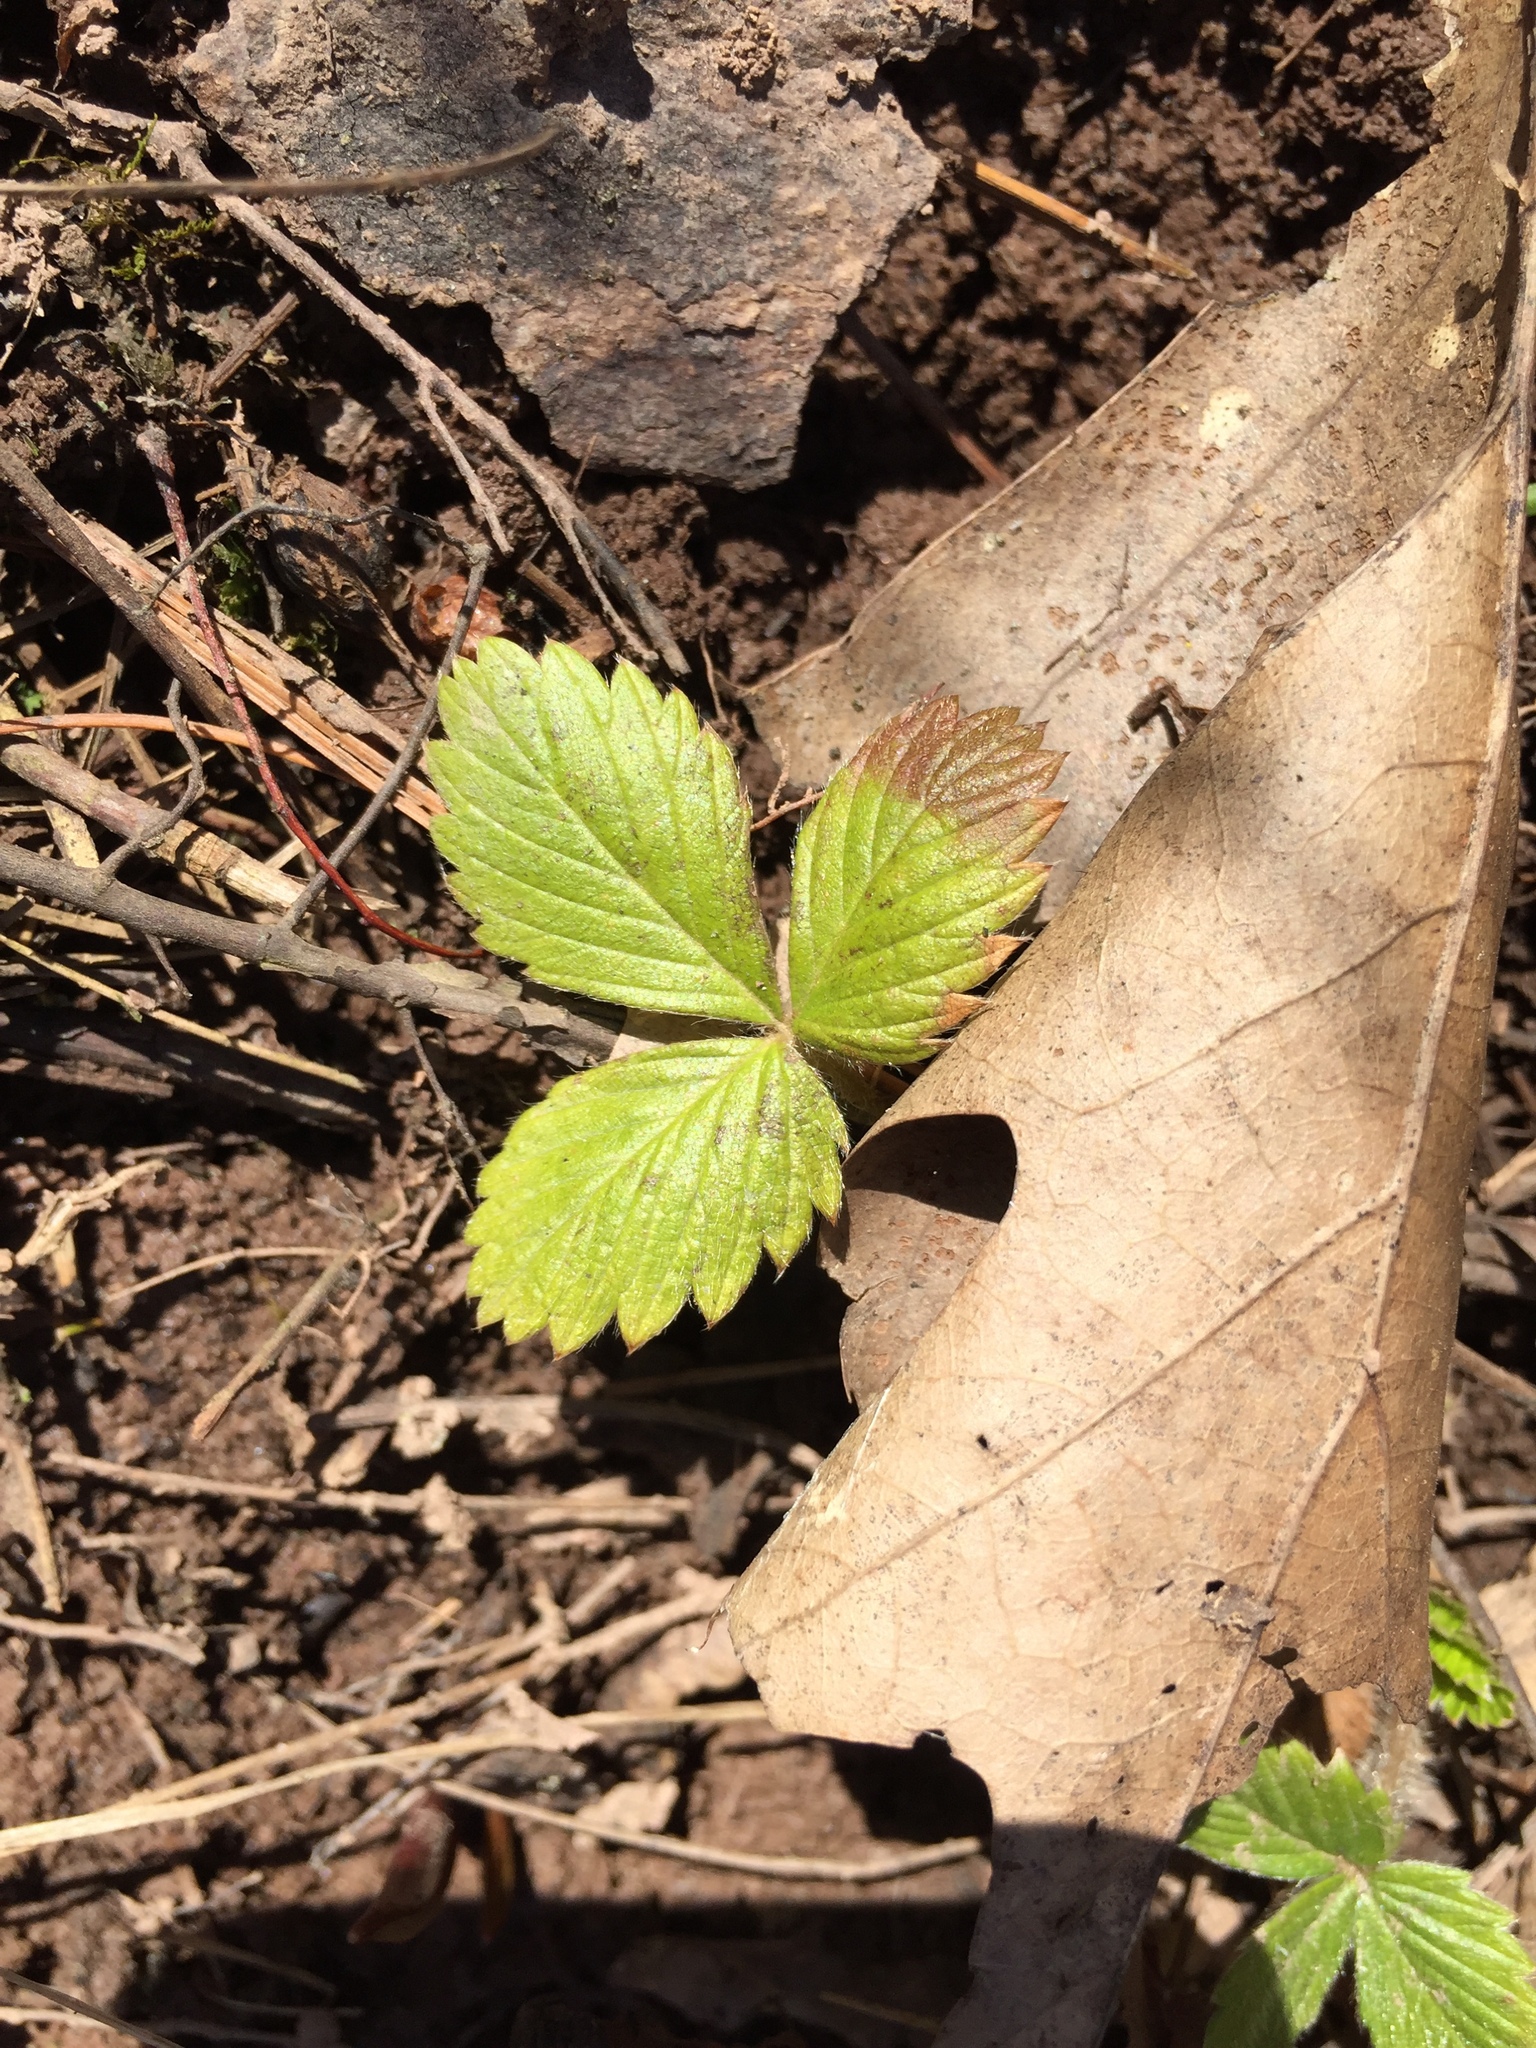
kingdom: Plantae
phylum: Tracheophyta
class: Magnoliopsida
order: Rosales
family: Rosaceae
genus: Fragaria
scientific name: Fragaria virginiana
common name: Thickleaved wild strawberry
